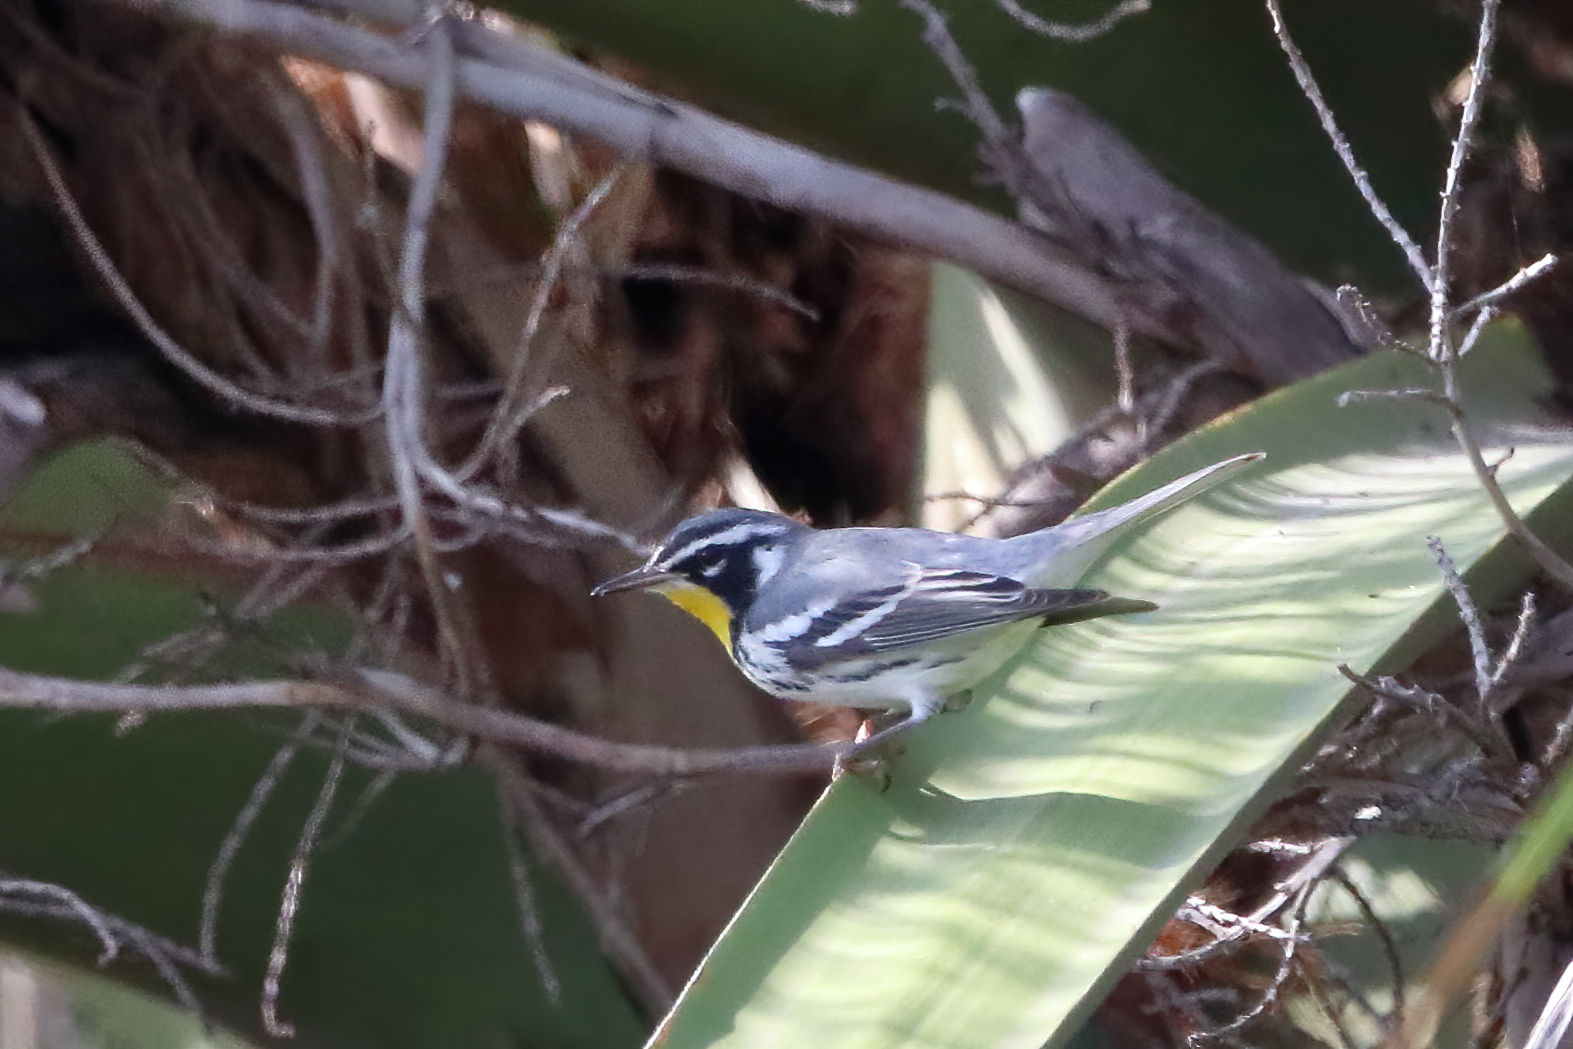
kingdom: Animalia
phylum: Chordata
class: Aves
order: Passeriformes
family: Parulidae
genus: Setophaga
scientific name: Setophaga dominica
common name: Yellow-throated warbler
